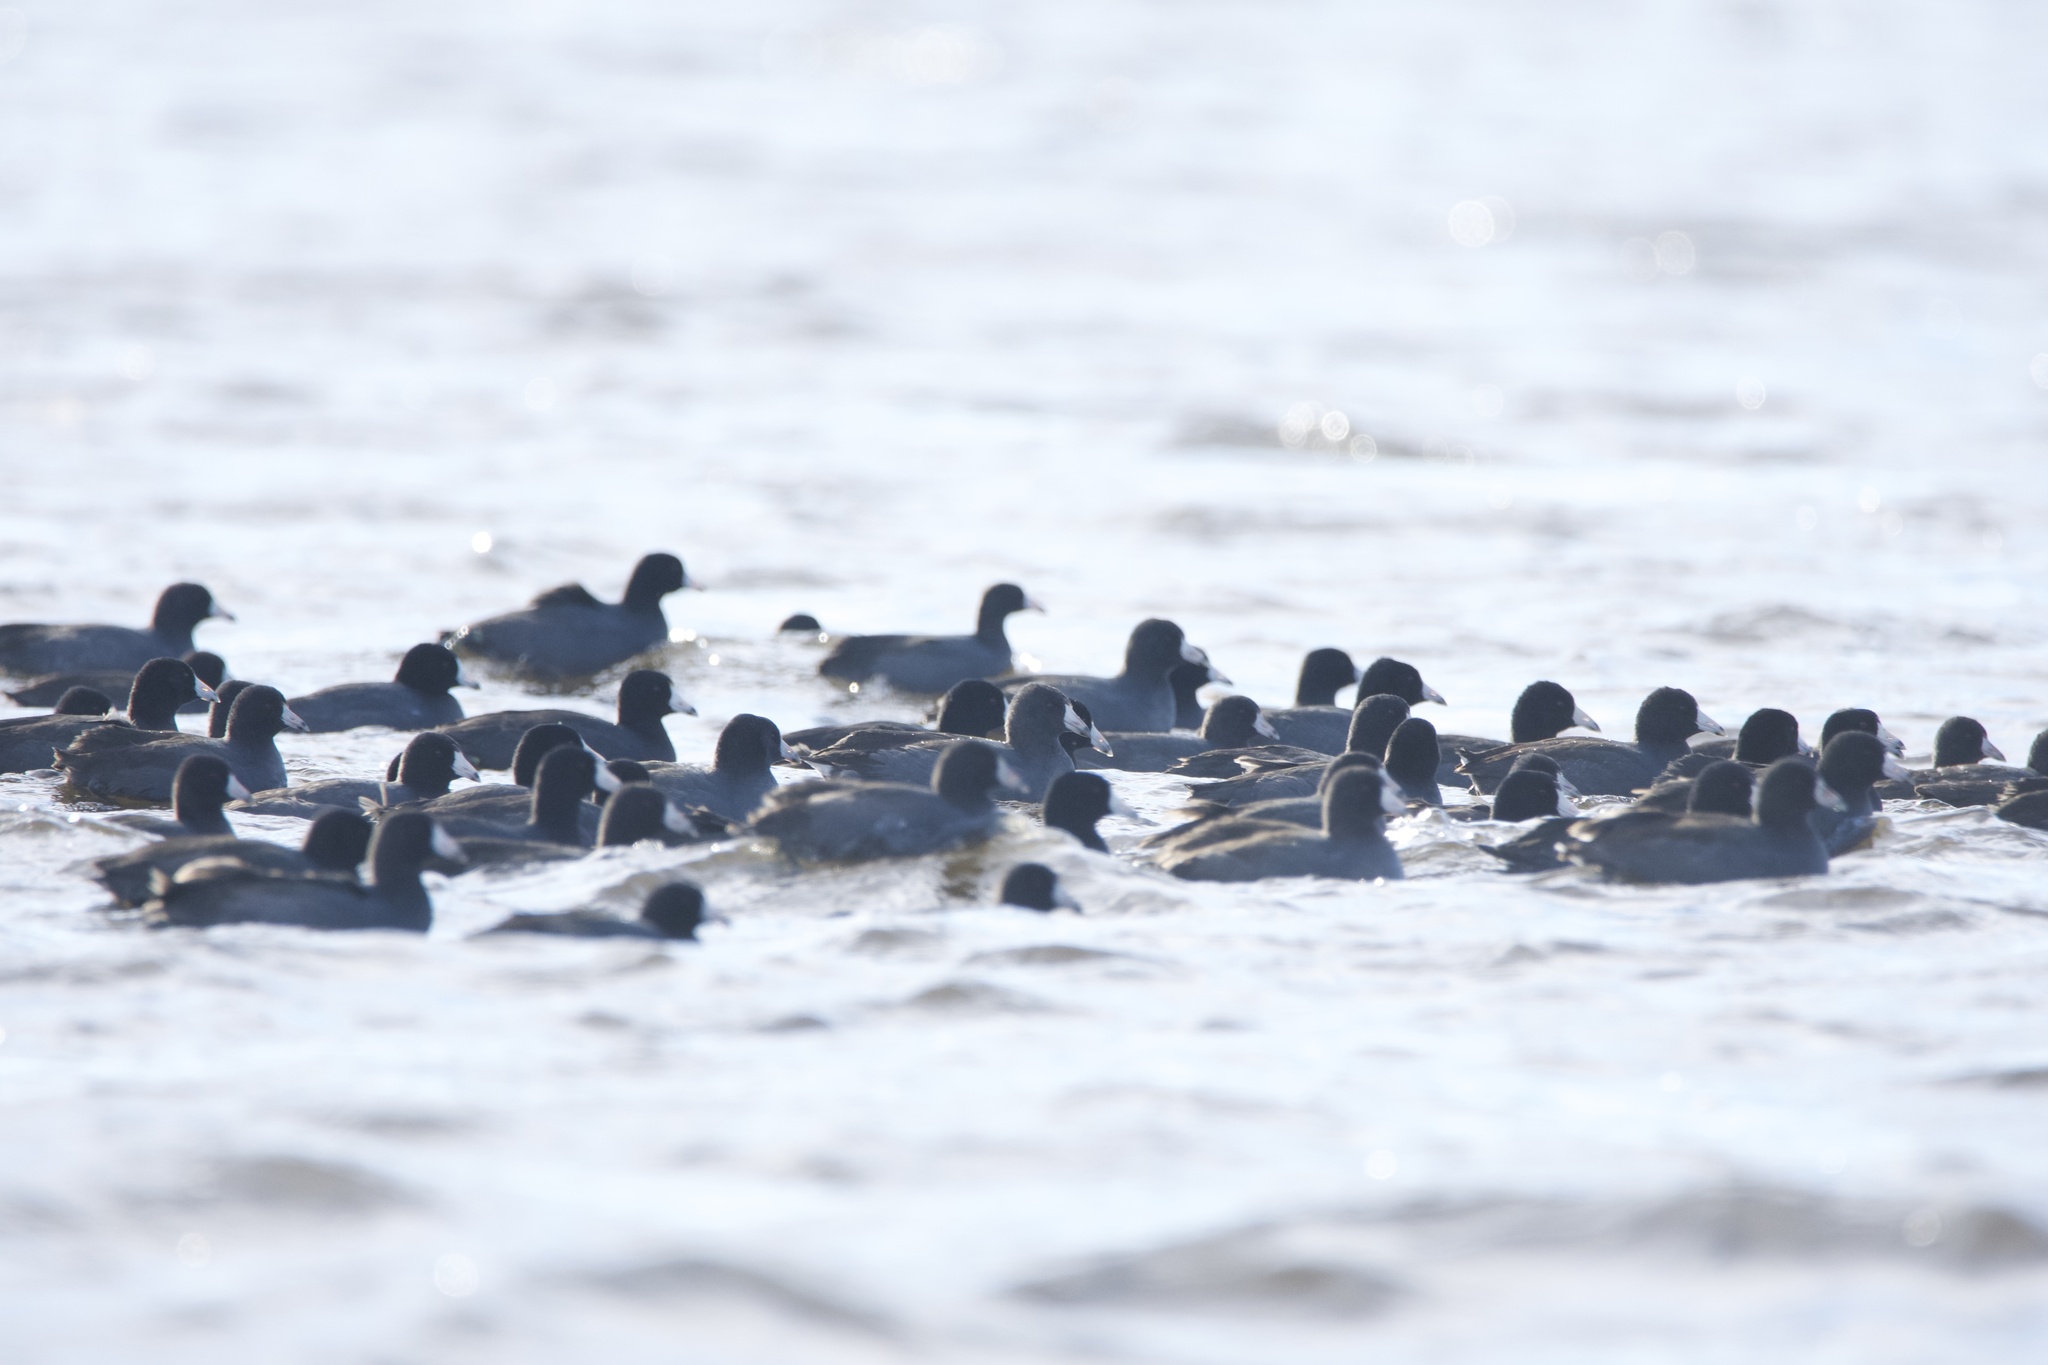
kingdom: Animalia
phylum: Chordata
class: Aves
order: Gruiformes
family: Rallidae
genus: Fulica
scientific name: Fulica americana
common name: American coot
